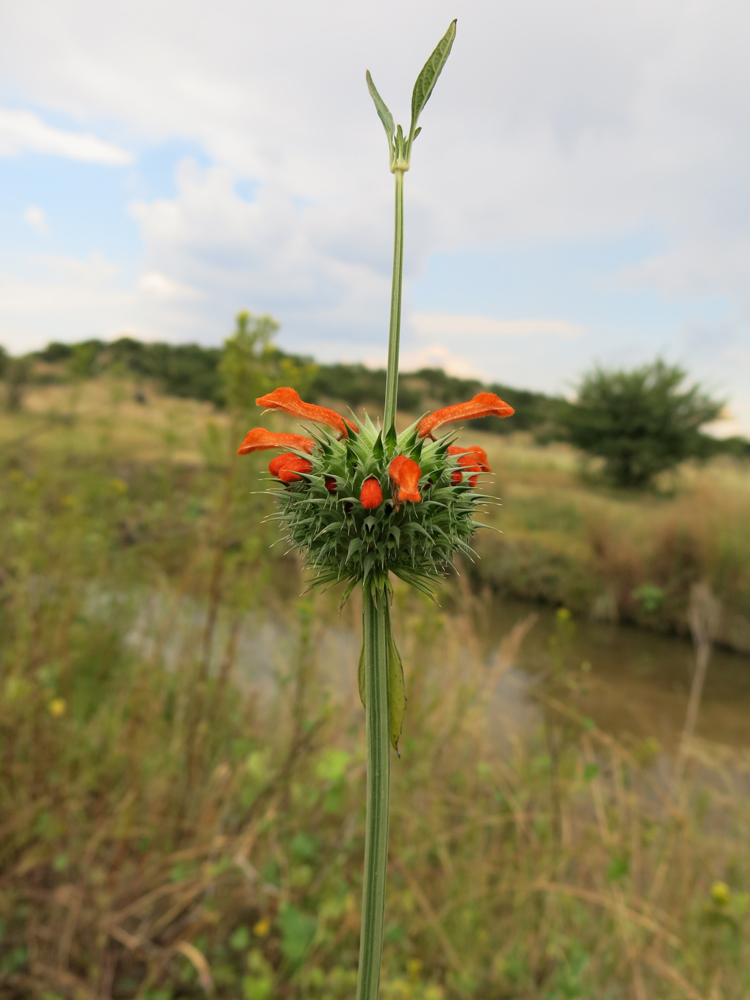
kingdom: Plantae
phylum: Tracheophyta
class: Magnoliopsida
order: Lamiales
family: Lamiaceae
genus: Leonotis
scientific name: Leonotis nepetifolia
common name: Christmas candlestick
